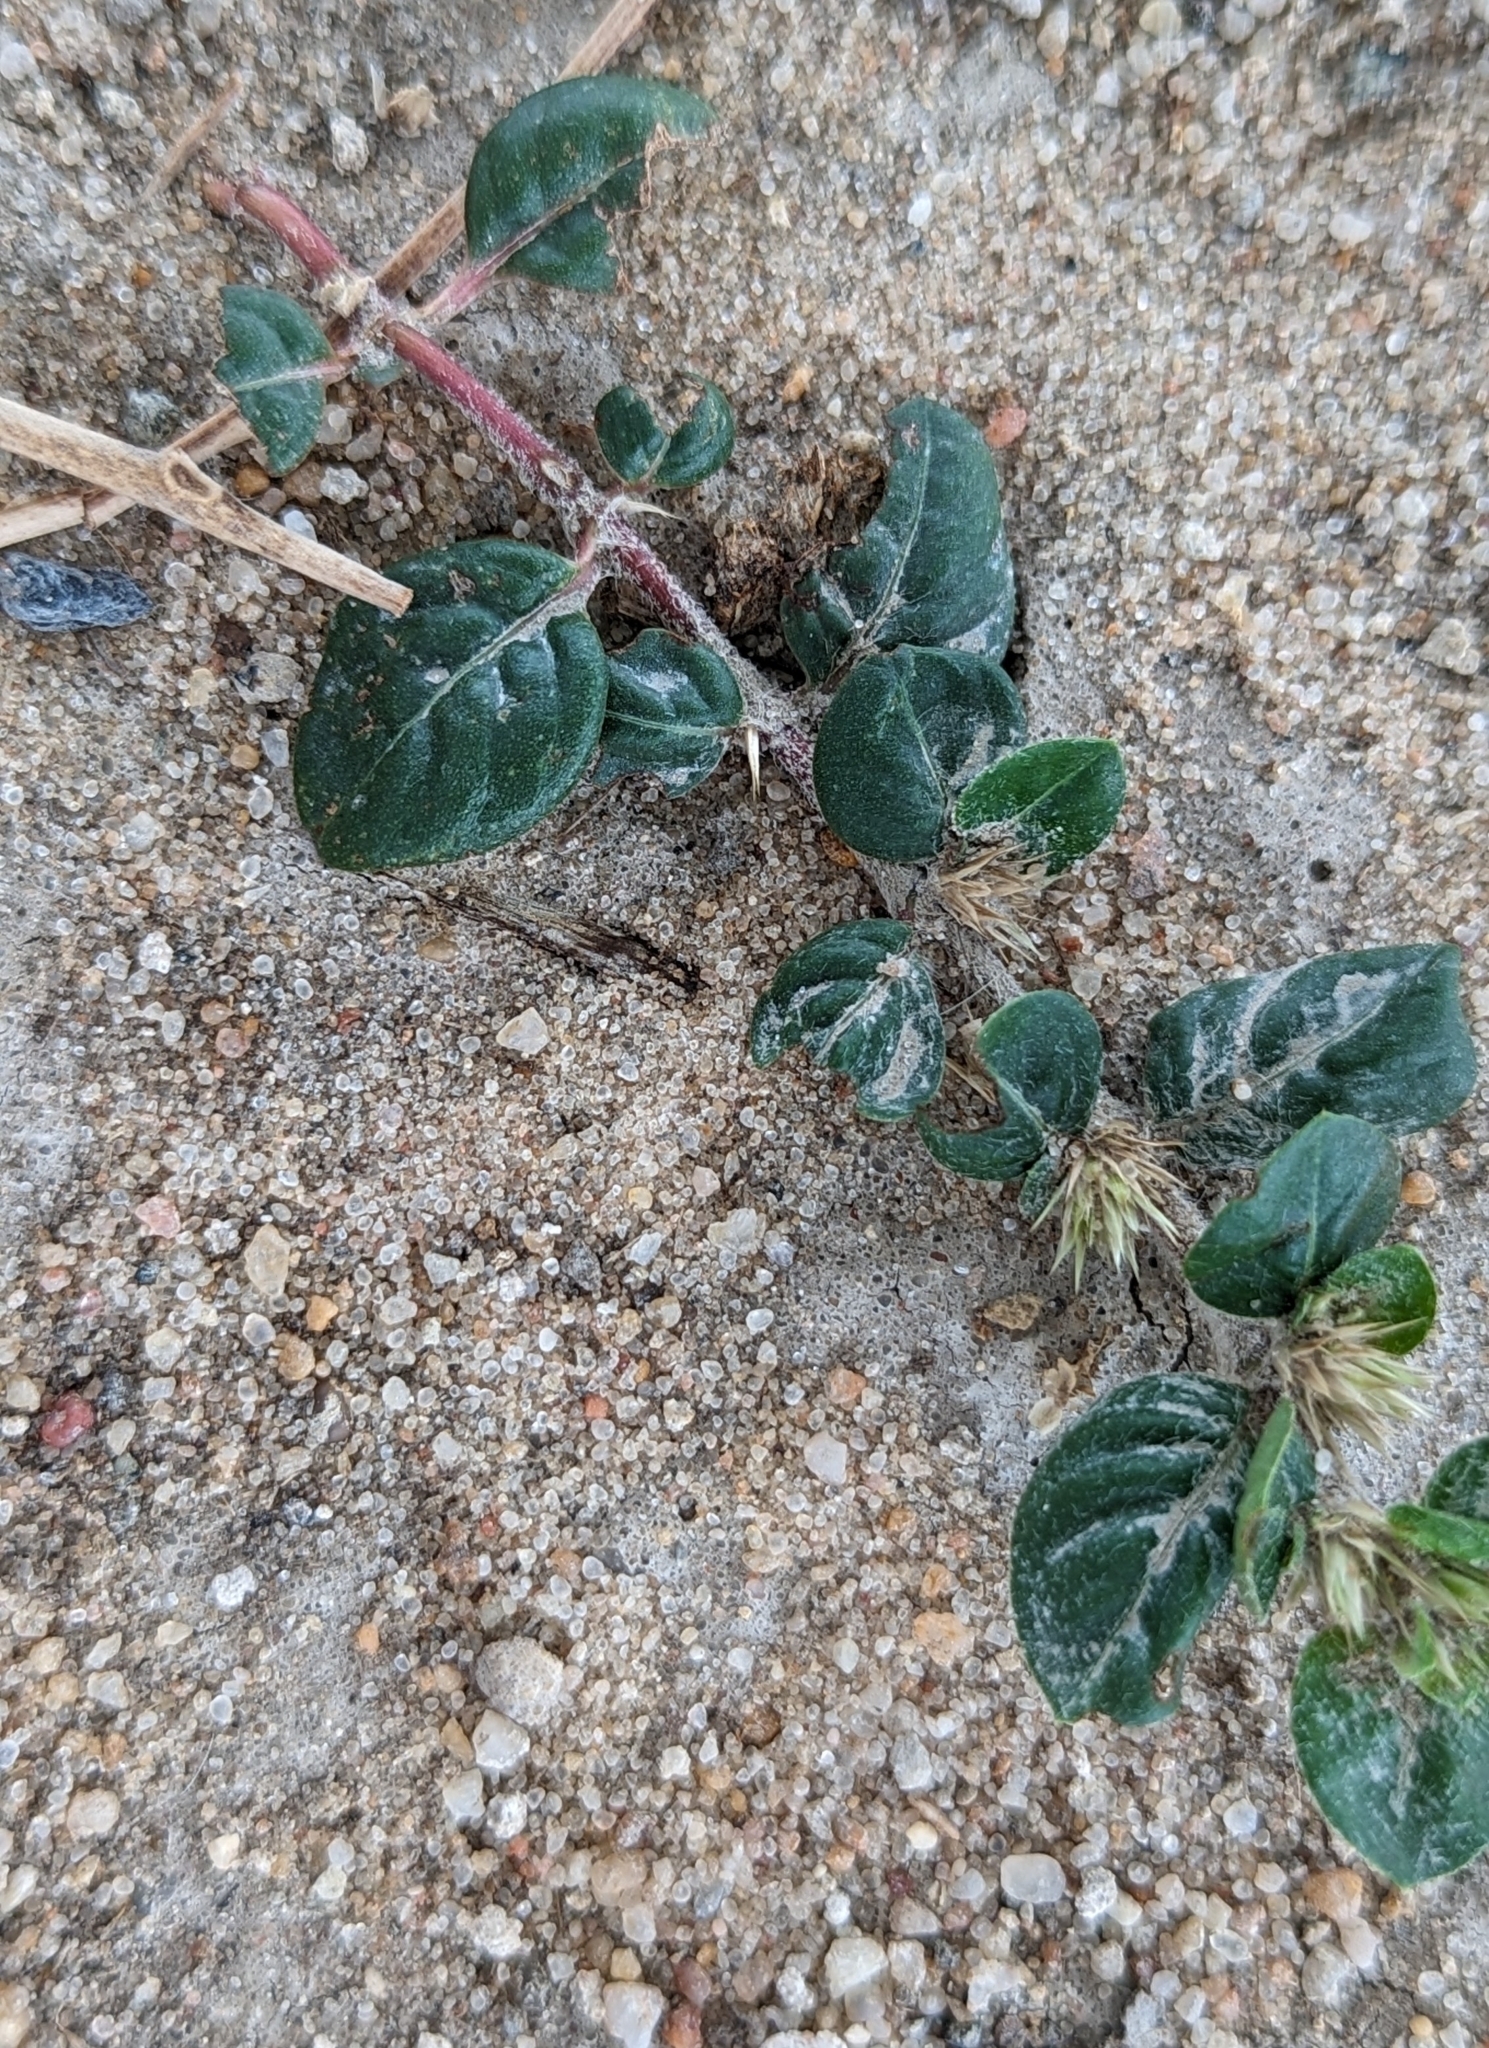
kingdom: Plantae
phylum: Tracheophyta
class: Magnoliopsida
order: Caryophyllales
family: Amaranthaceae
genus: Alternanthera
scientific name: Alternanthera pungens
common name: Khakiweed
